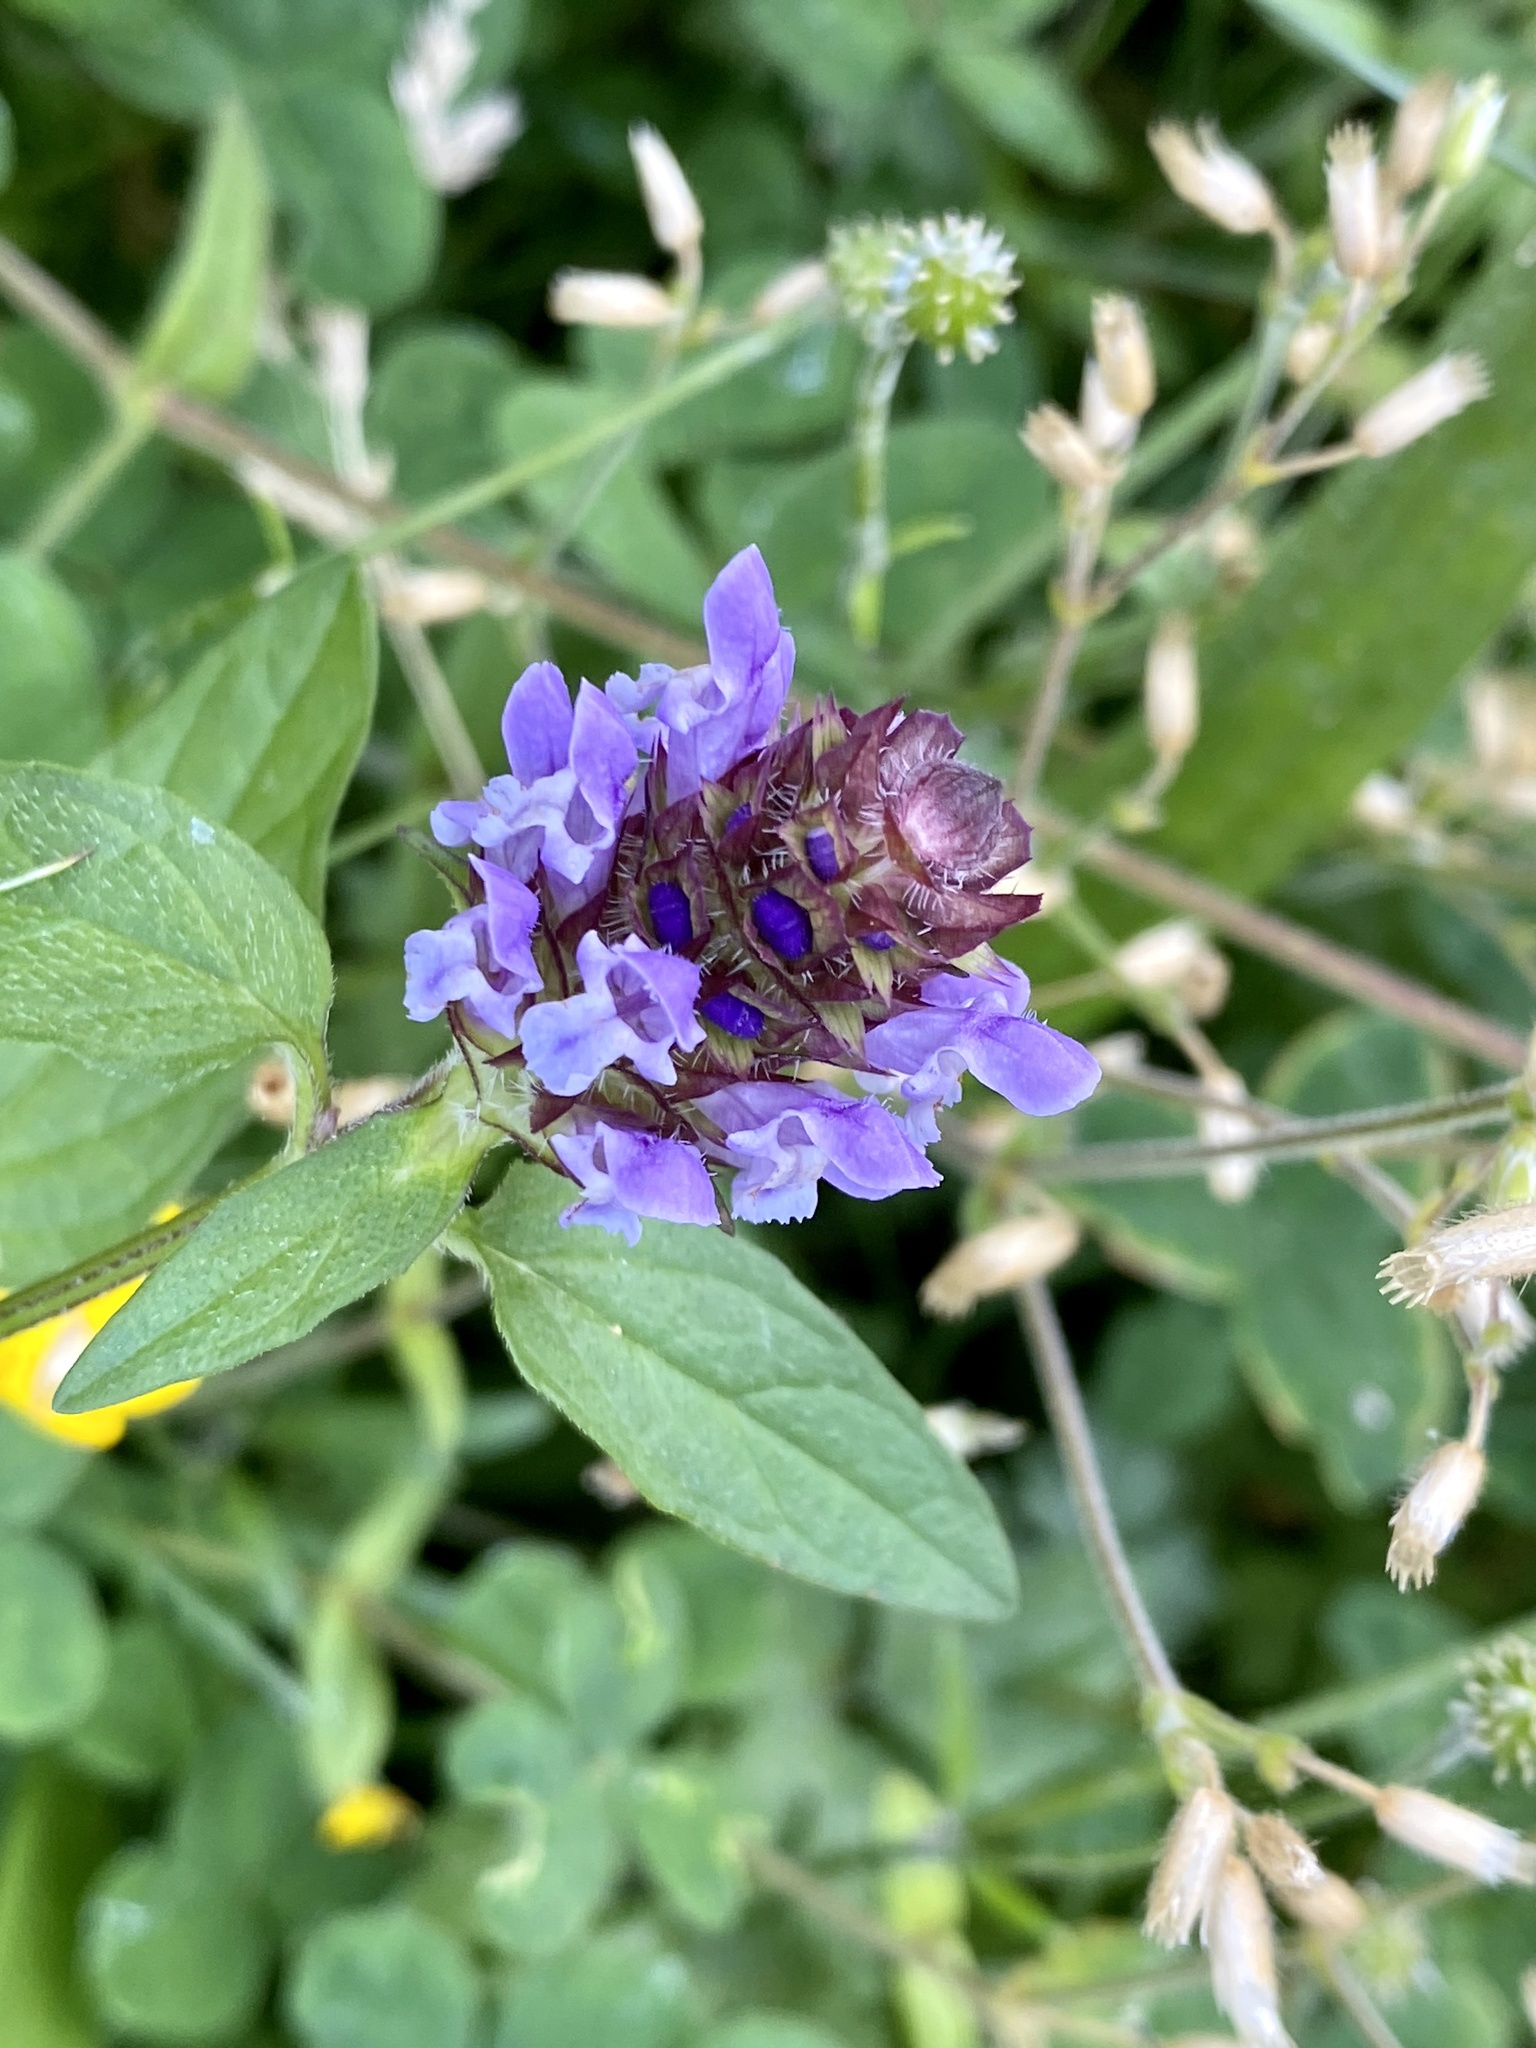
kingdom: Plantae
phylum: Tracheophyta
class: Magnoliopsida
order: Lamiales
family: Lamiaceae
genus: Prunella
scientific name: Prunella vulgaris
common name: Heal-all
